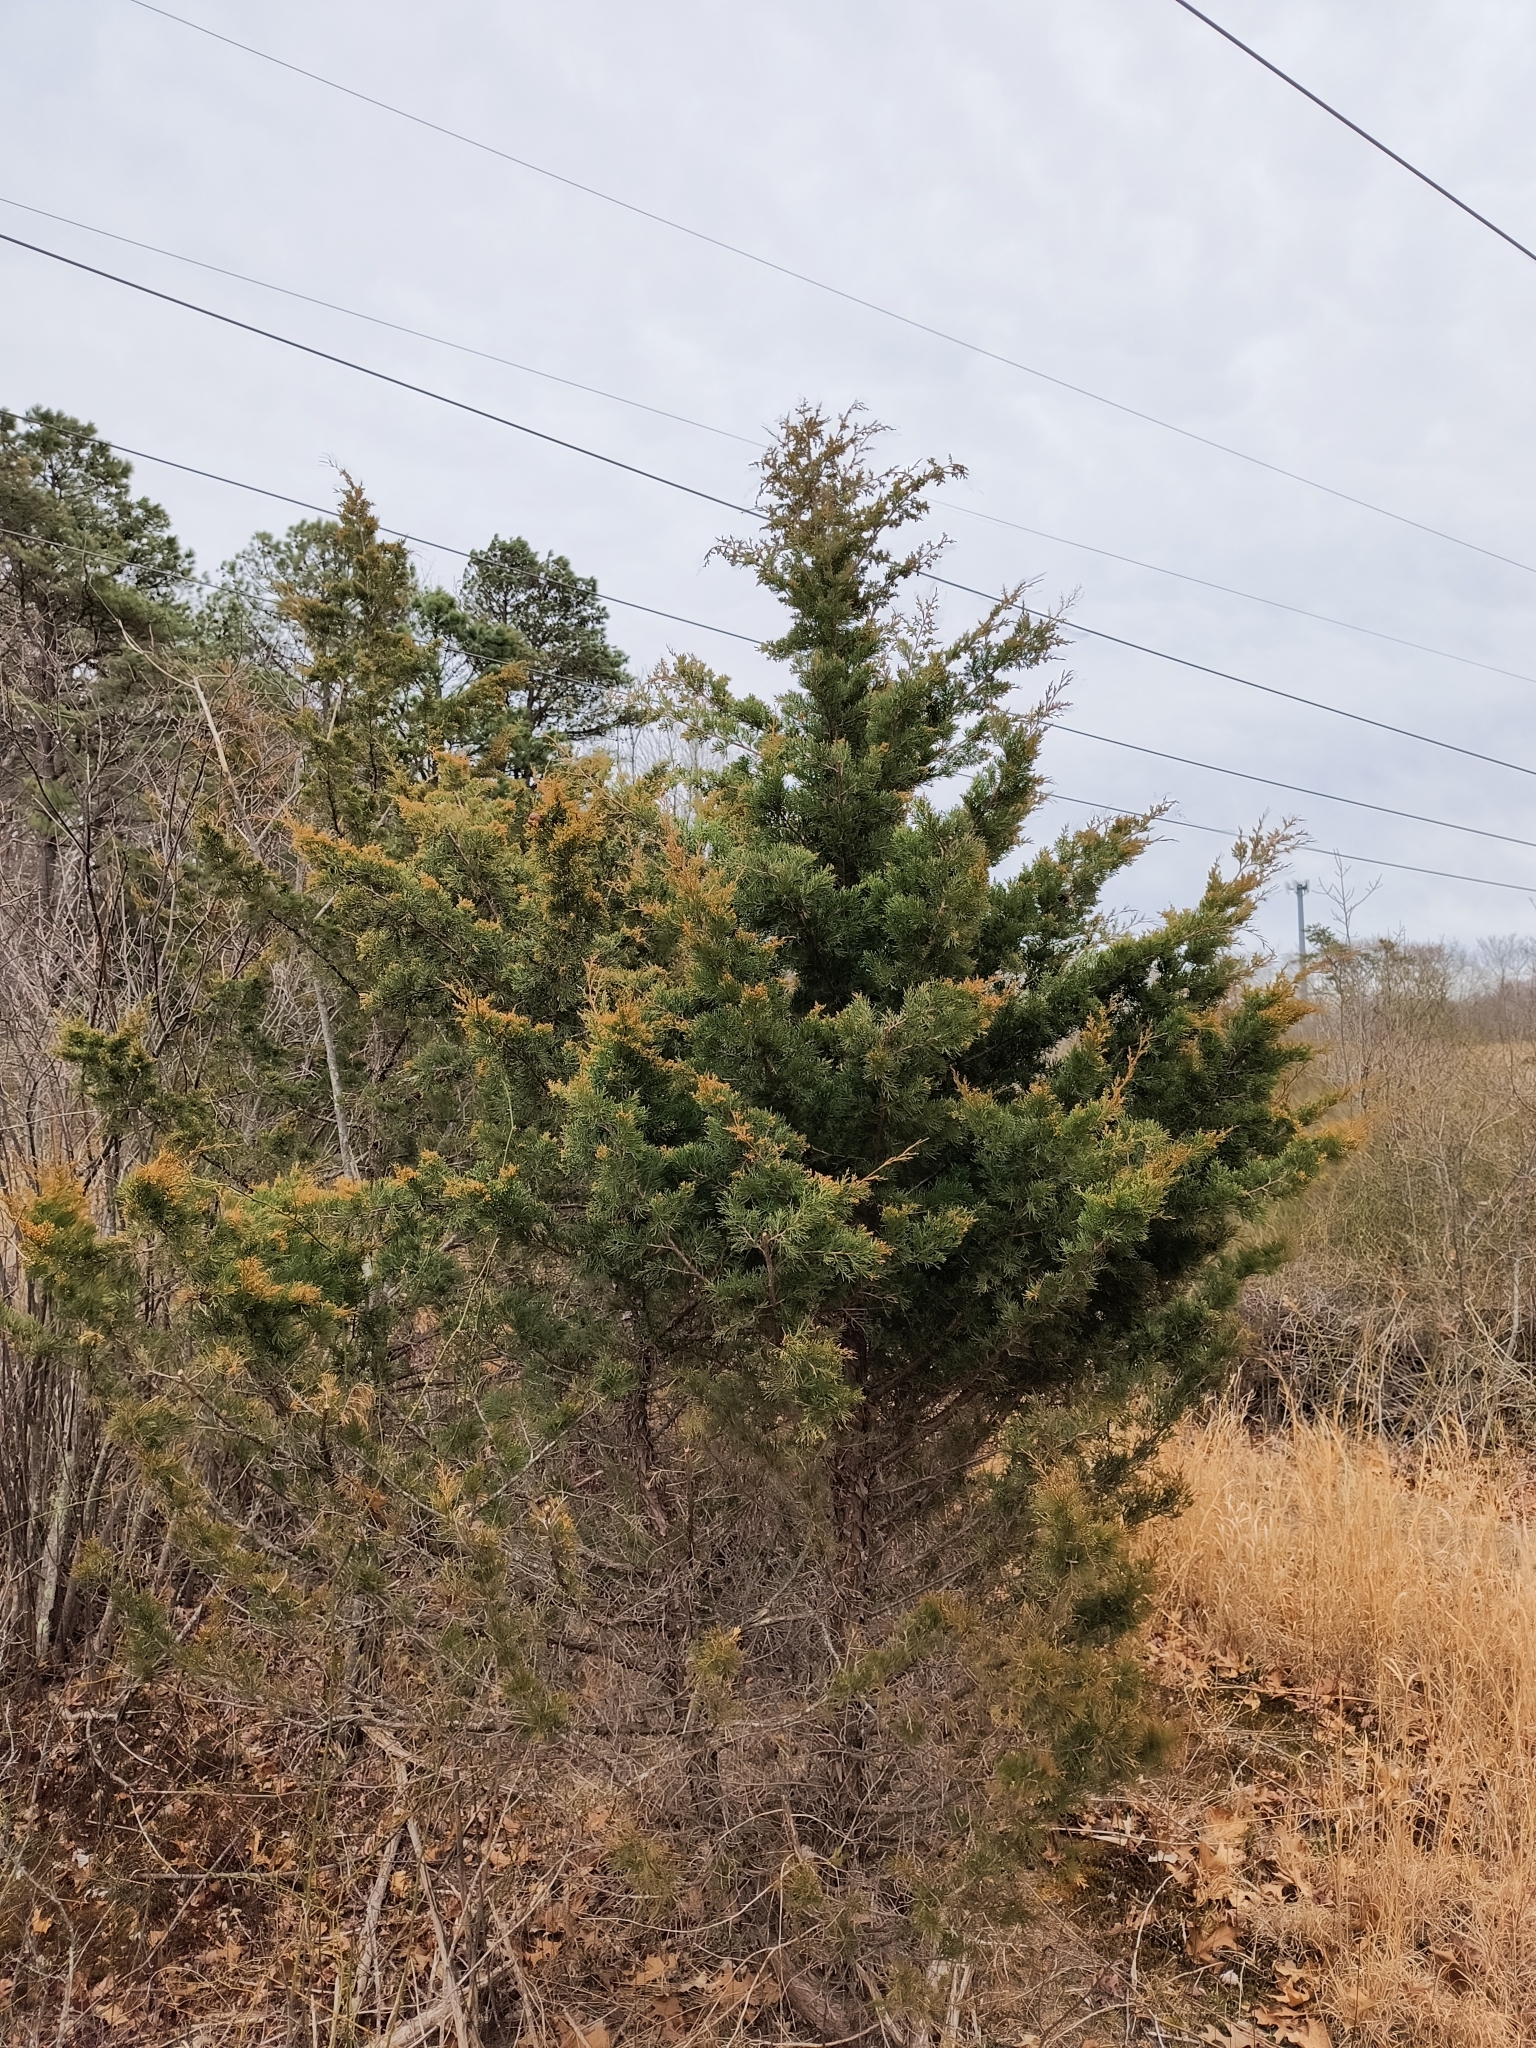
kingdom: Fungi
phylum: Basidiomycota
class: Pucciniomycetes
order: Pucciniales
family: Gymnosporangiaceae
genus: Gymnosporangium
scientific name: Gymnosporangium juniperi-virginianae
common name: Juniper-apple rust
